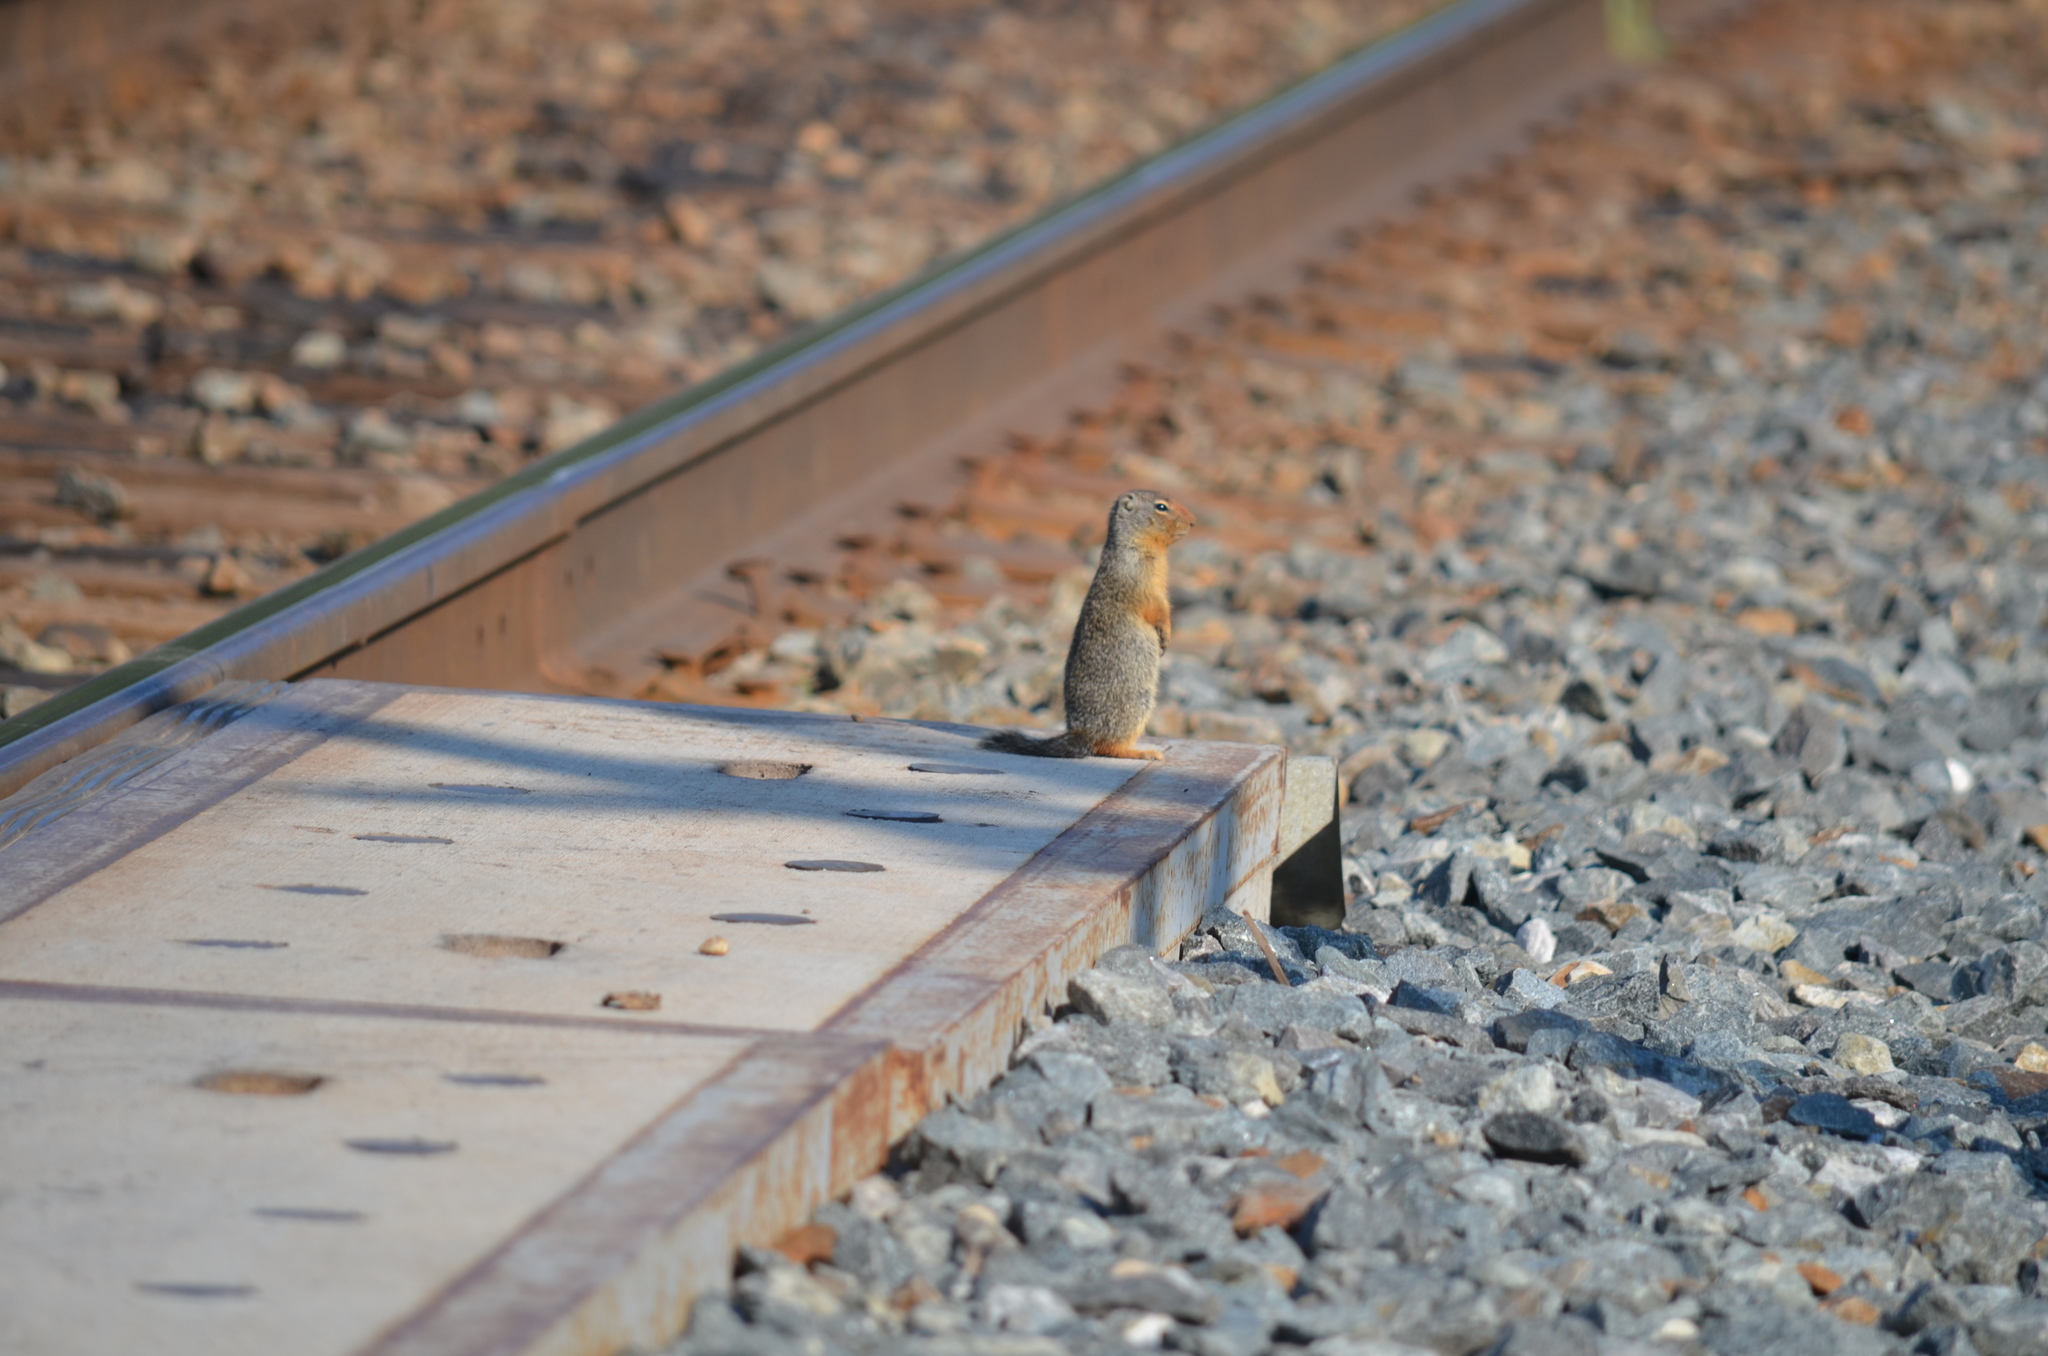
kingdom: Animalia
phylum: Chordata
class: Mammalia
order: Rodentia
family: Sciuridae
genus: Urocitellus
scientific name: Urocitellus columbianus
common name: Columbian ground squirrel
